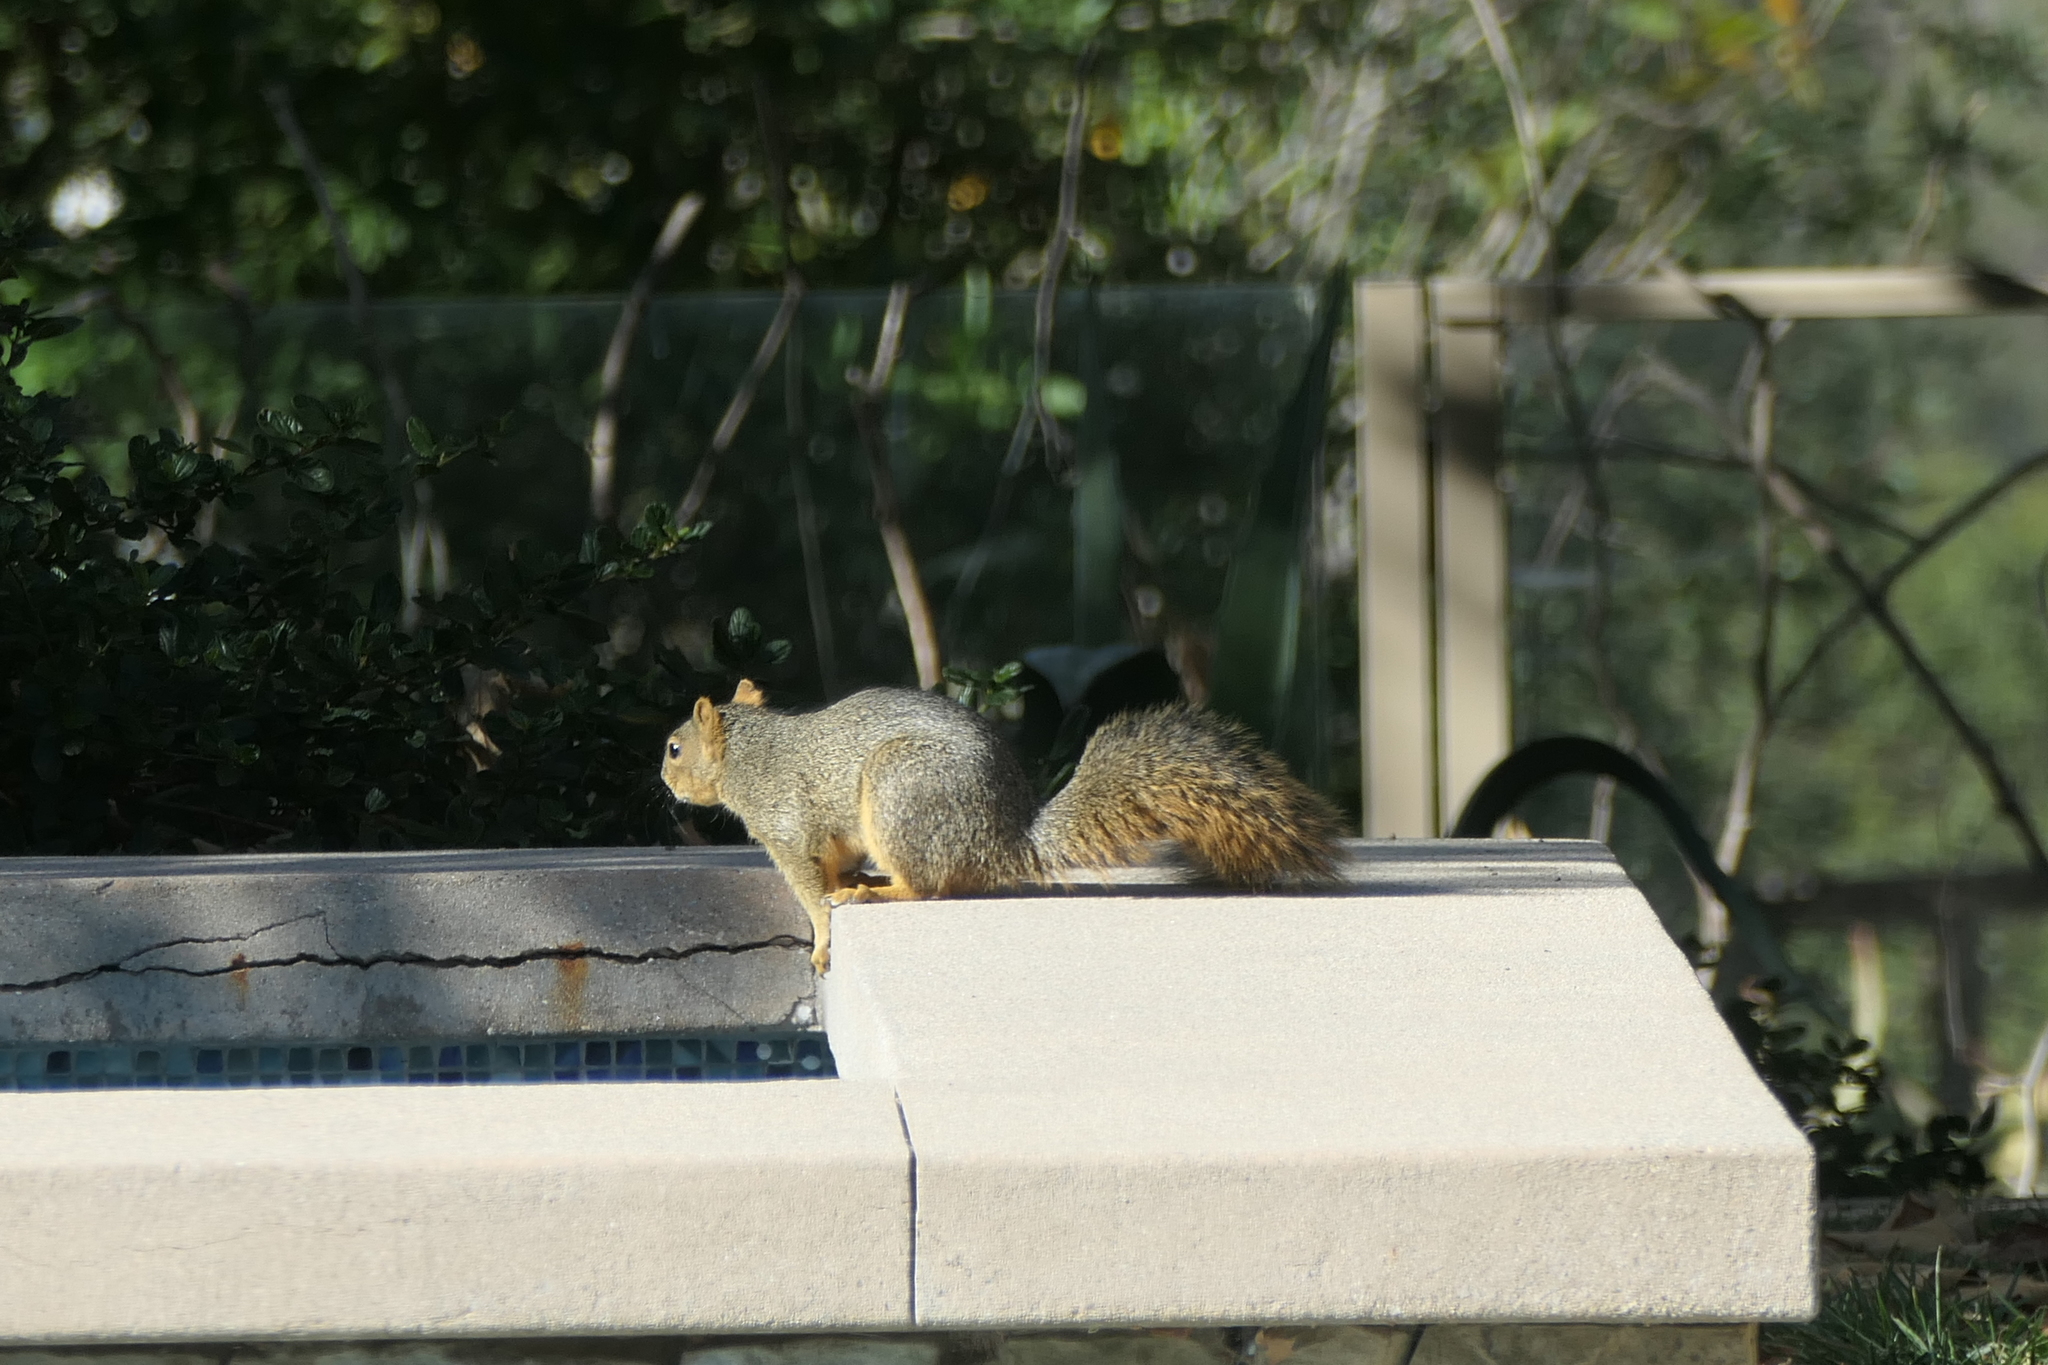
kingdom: Animalia
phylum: Chordata
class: Mammalia
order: Rodentia
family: Sciuridae
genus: Sciurus
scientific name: Sciurus niger
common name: Fox squirrel
